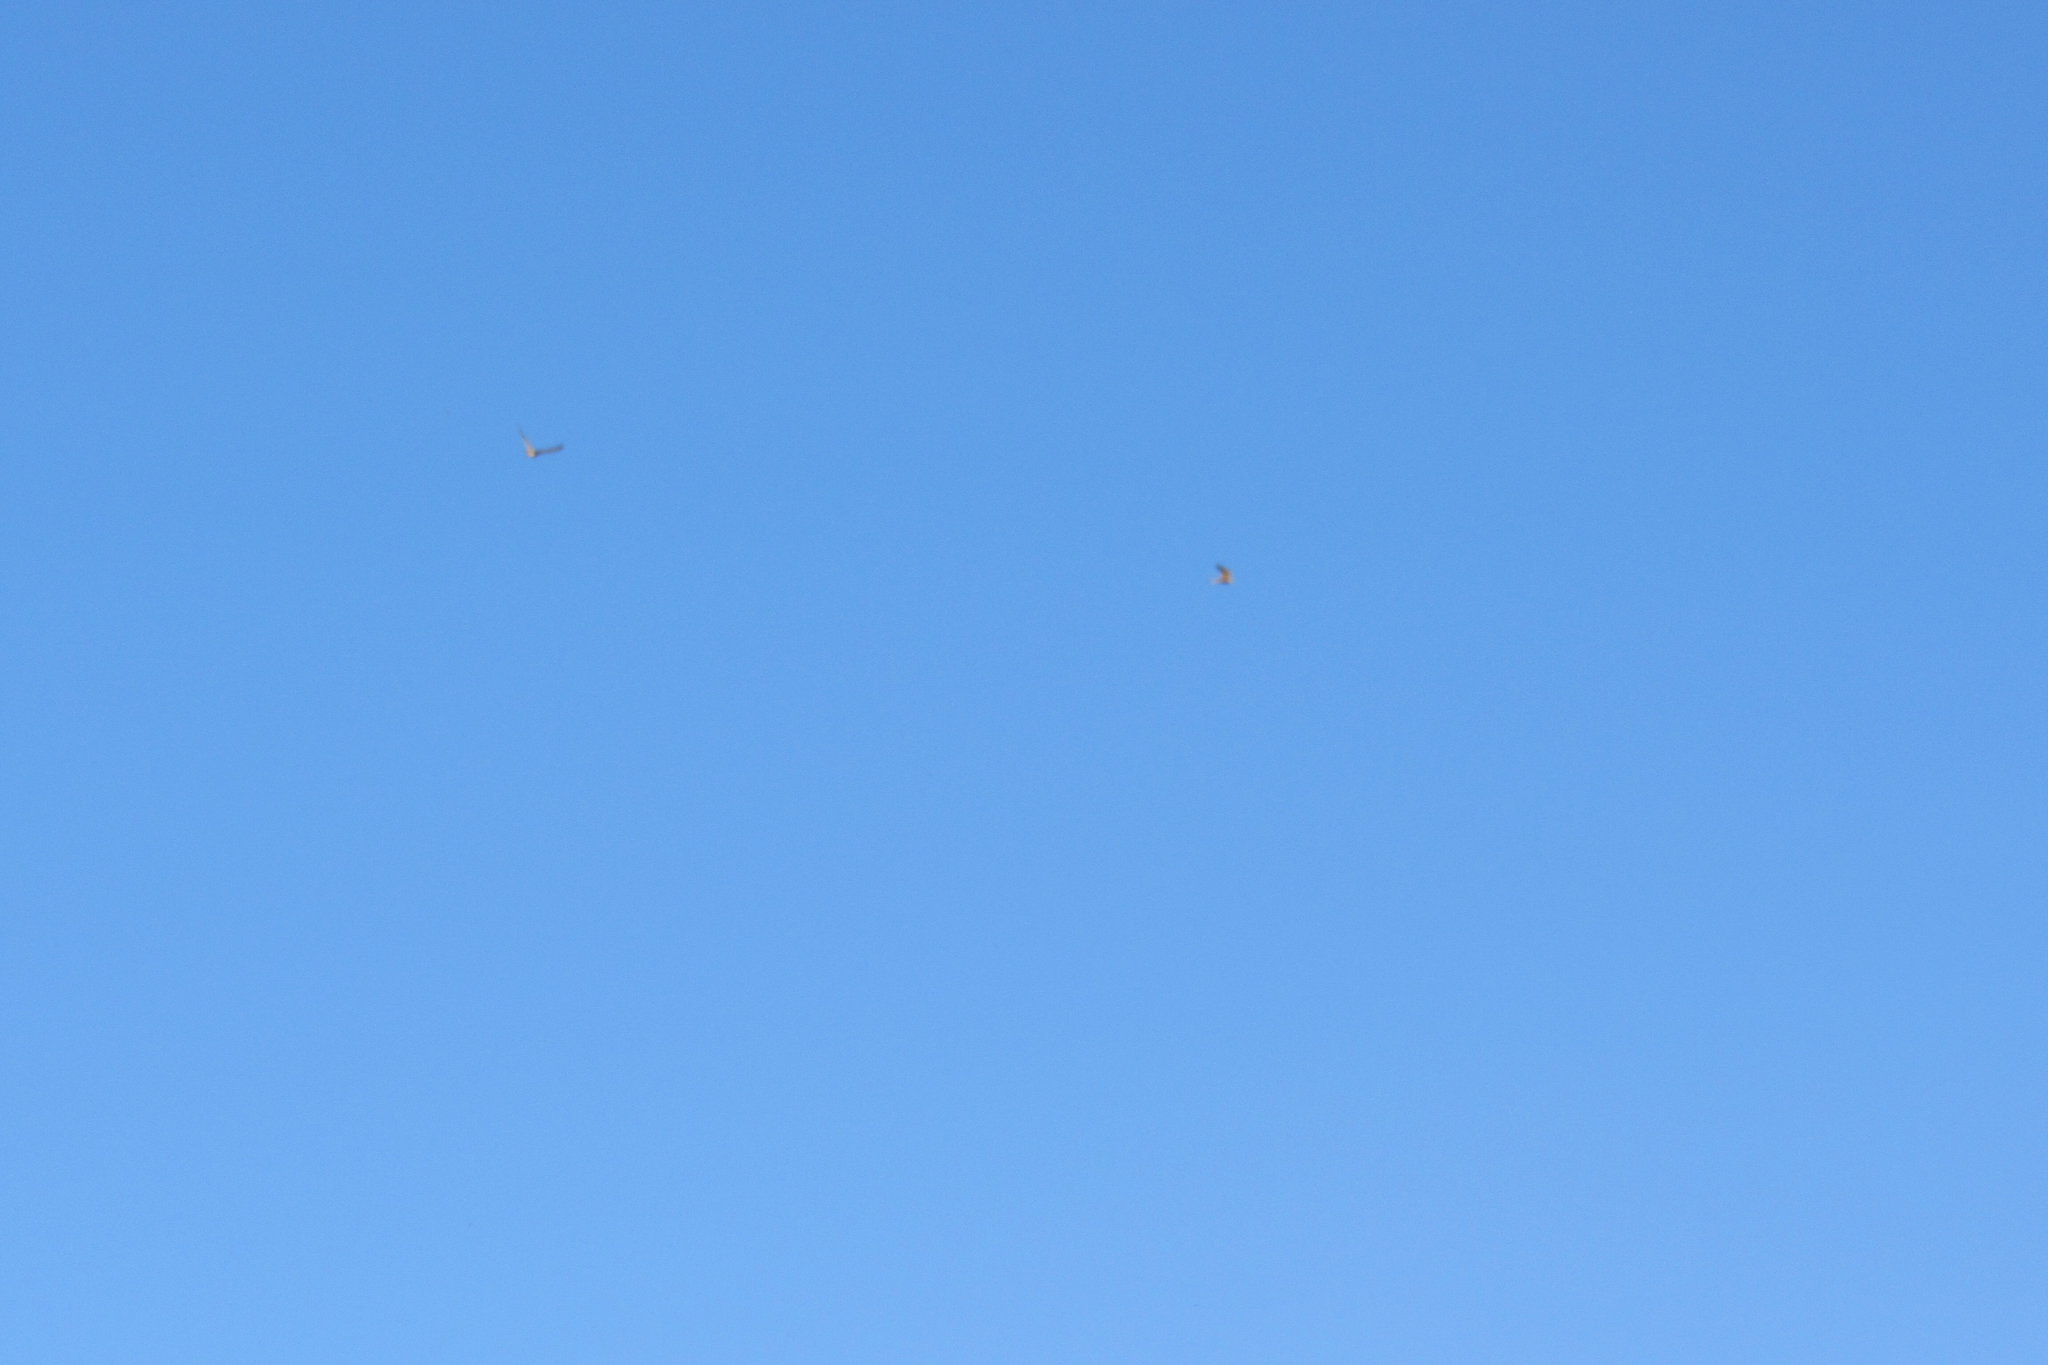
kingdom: Animalia
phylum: Chordata
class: Aves
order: Accipitriformes
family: Accipitridae
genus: Buteo
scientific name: Buteo jamaicensis
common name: Red-tailed hawk
